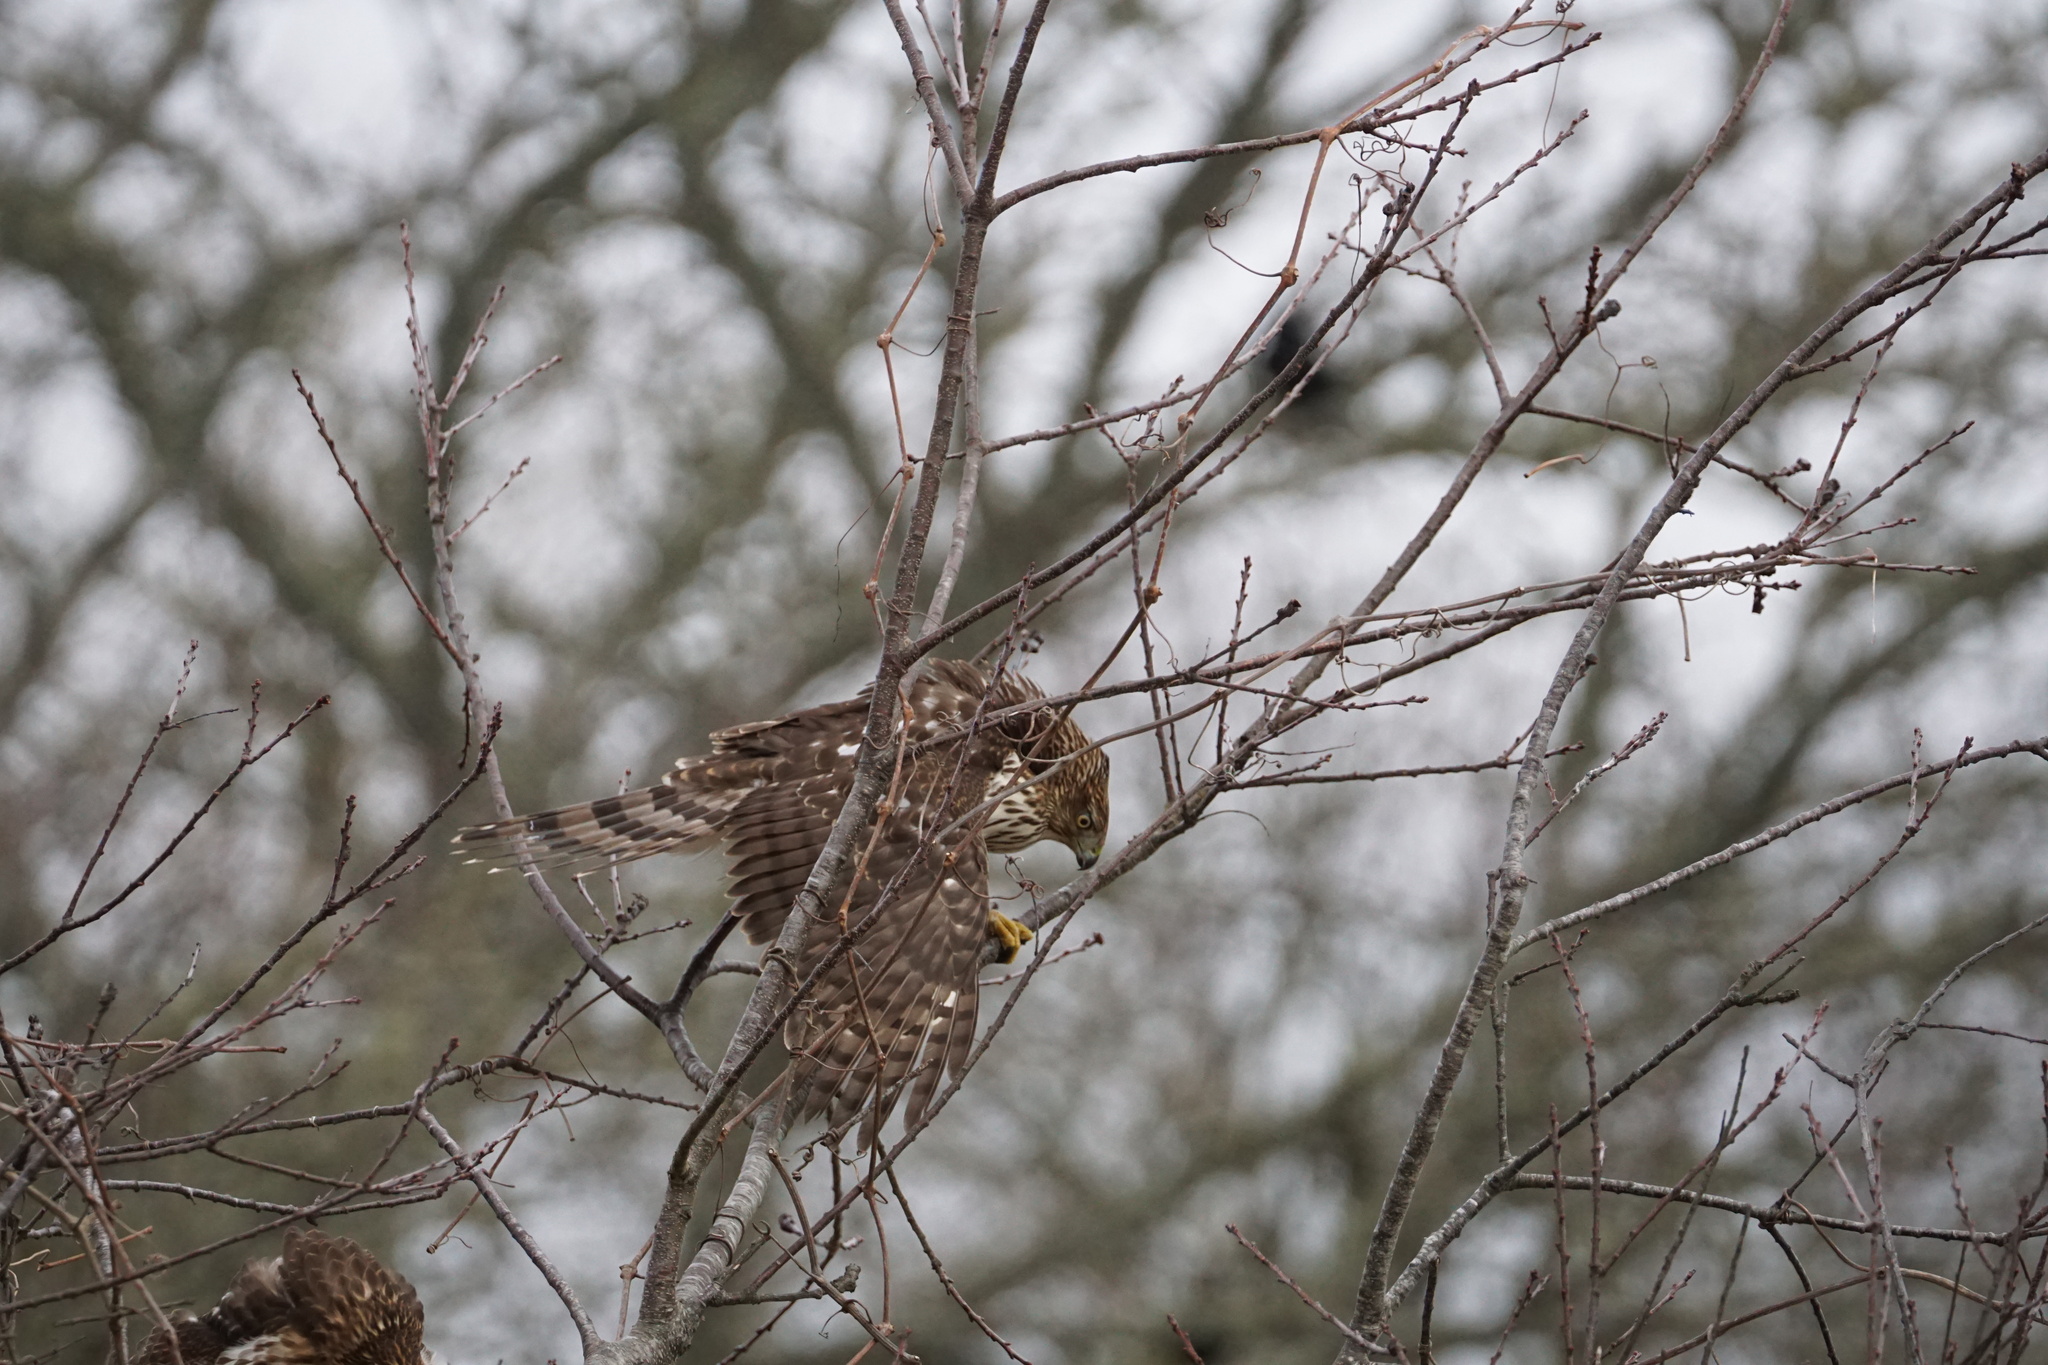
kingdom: Animalia
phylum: Chordata
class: Aves
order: Accipitriformes
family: Accipitridae
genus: Accipiter
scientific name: Accipiter cooperii
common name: Cooper's hawk
